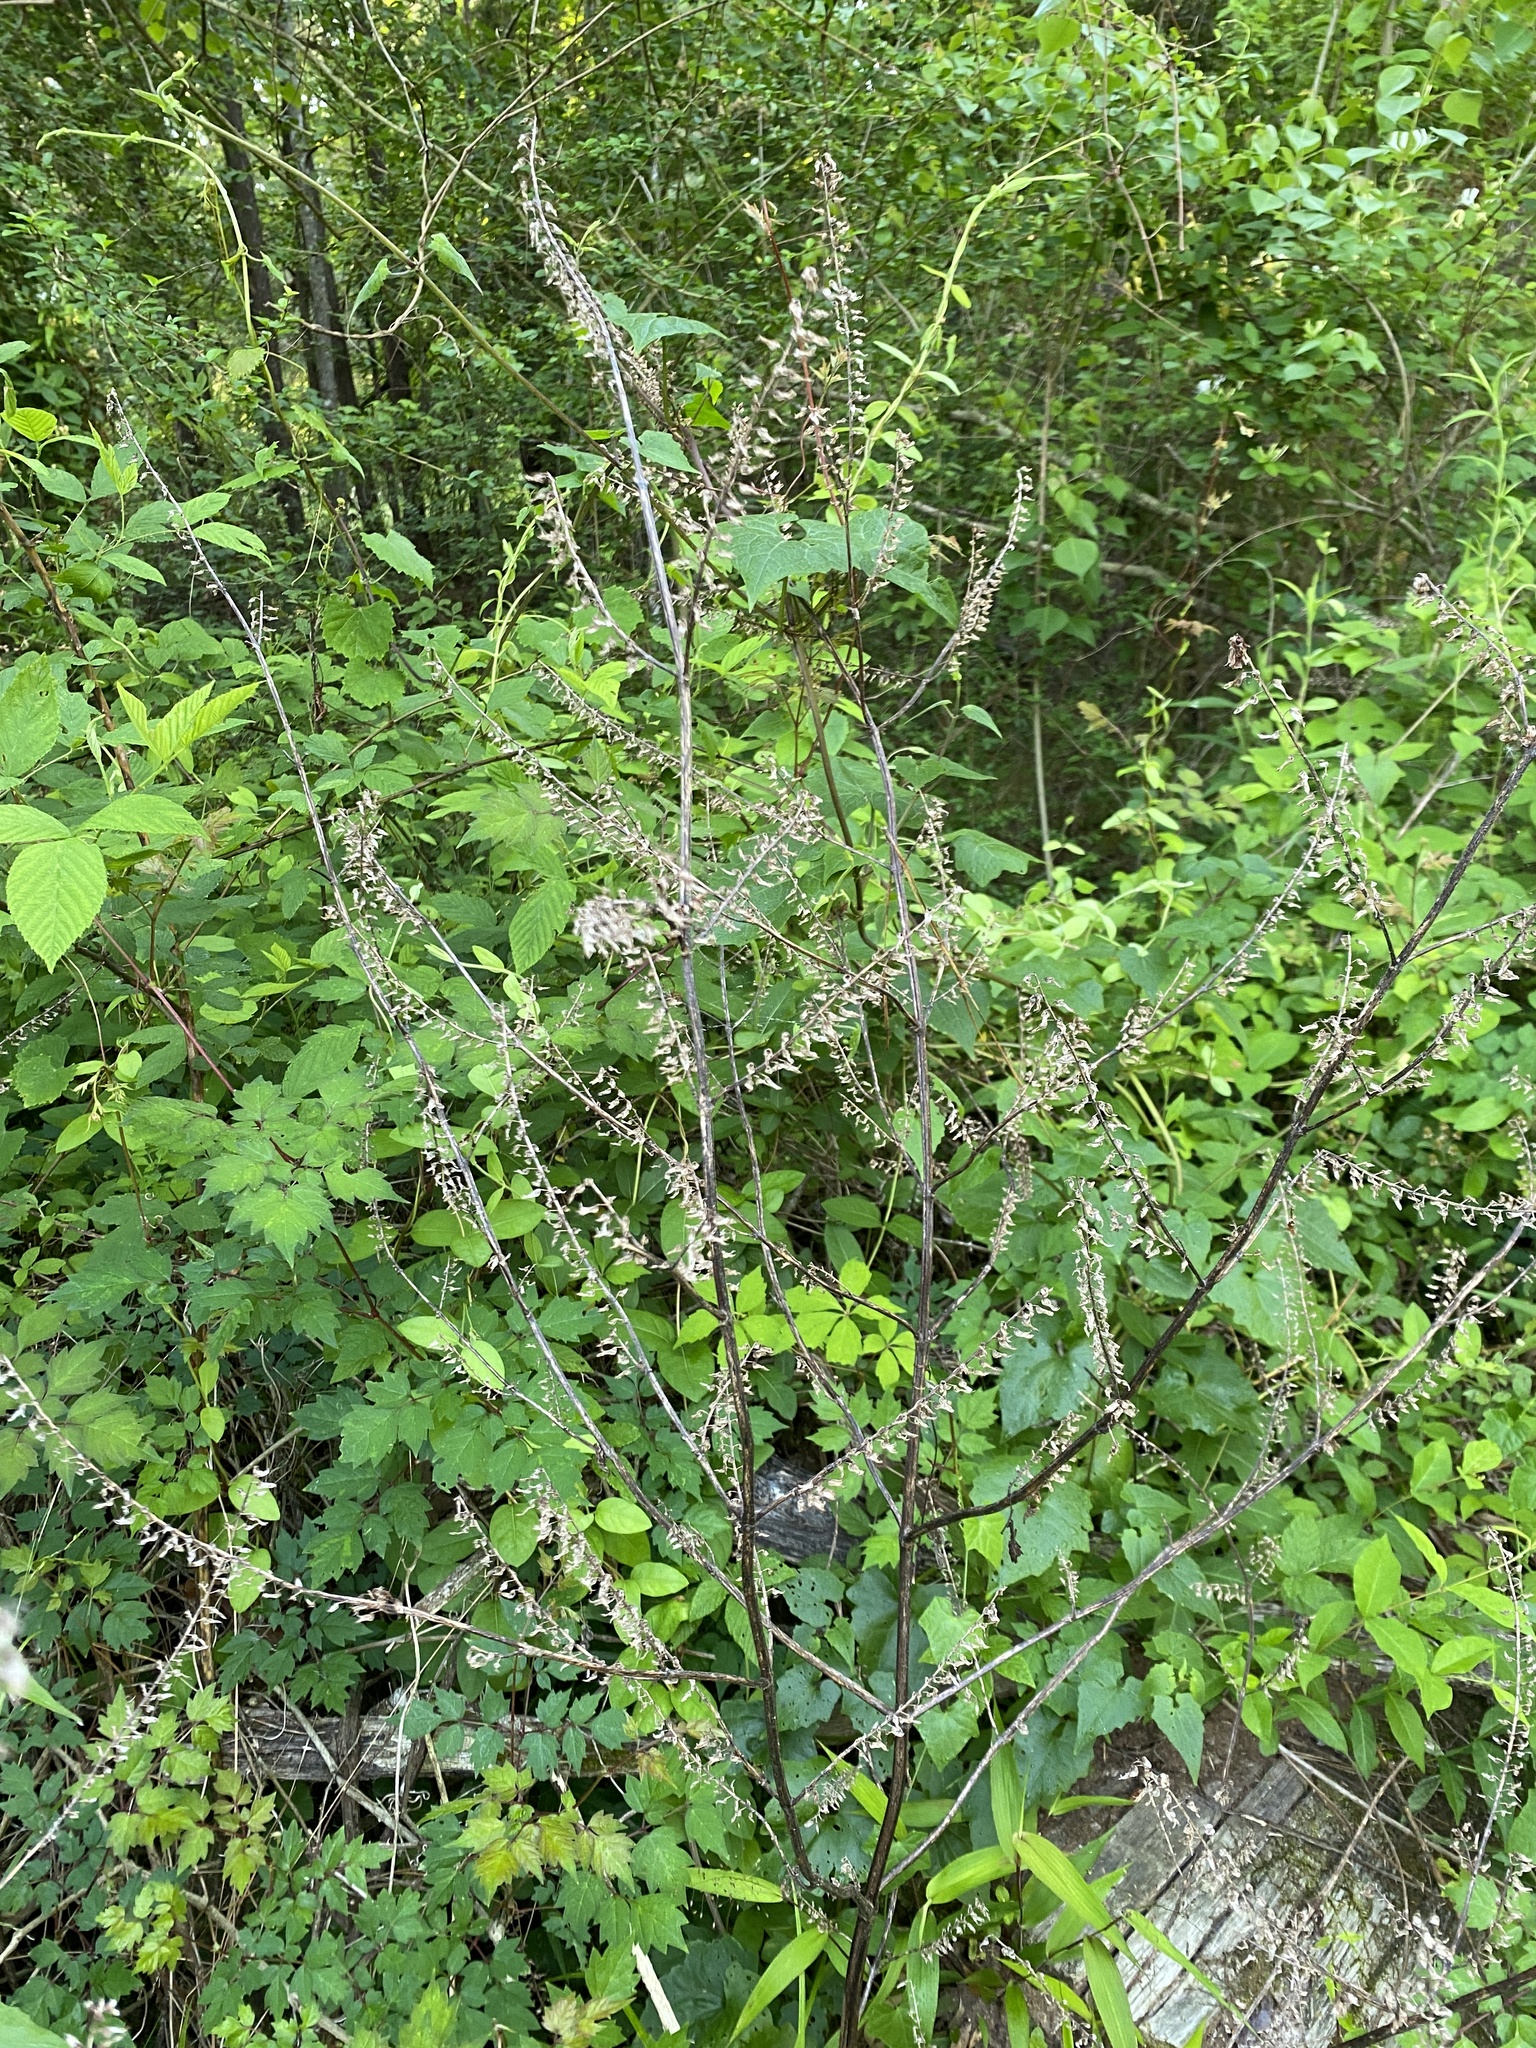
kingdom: Plantae
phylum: Tracheophyta
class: Magnoliopsida
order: Lamiales
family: Lamiaceae
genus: Perilla
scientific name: Perilla frutescens
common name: Perilla
